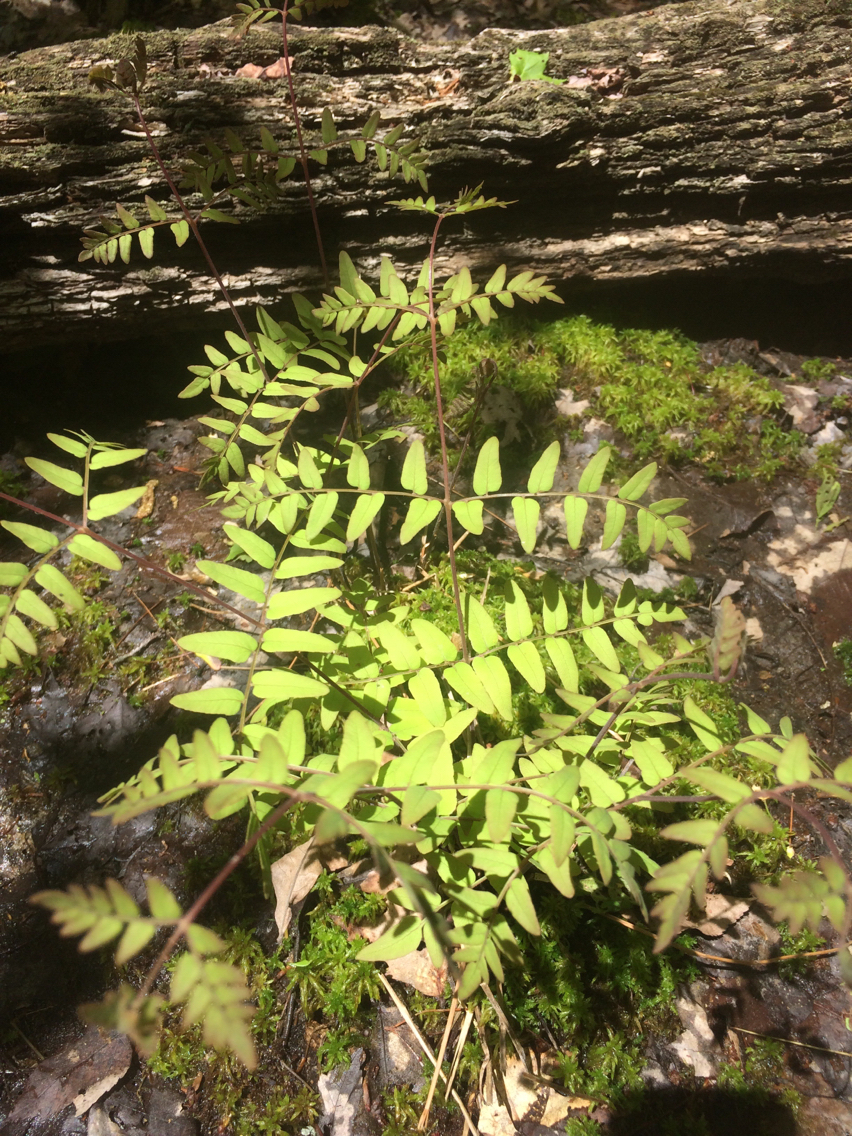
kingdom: Plantae
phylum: Tracheophyta
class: Polypodiopsida
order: Osmundales
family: Osmundaceae
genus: Osmunda
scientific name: Osmunda spectabilis
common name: American royal fern
